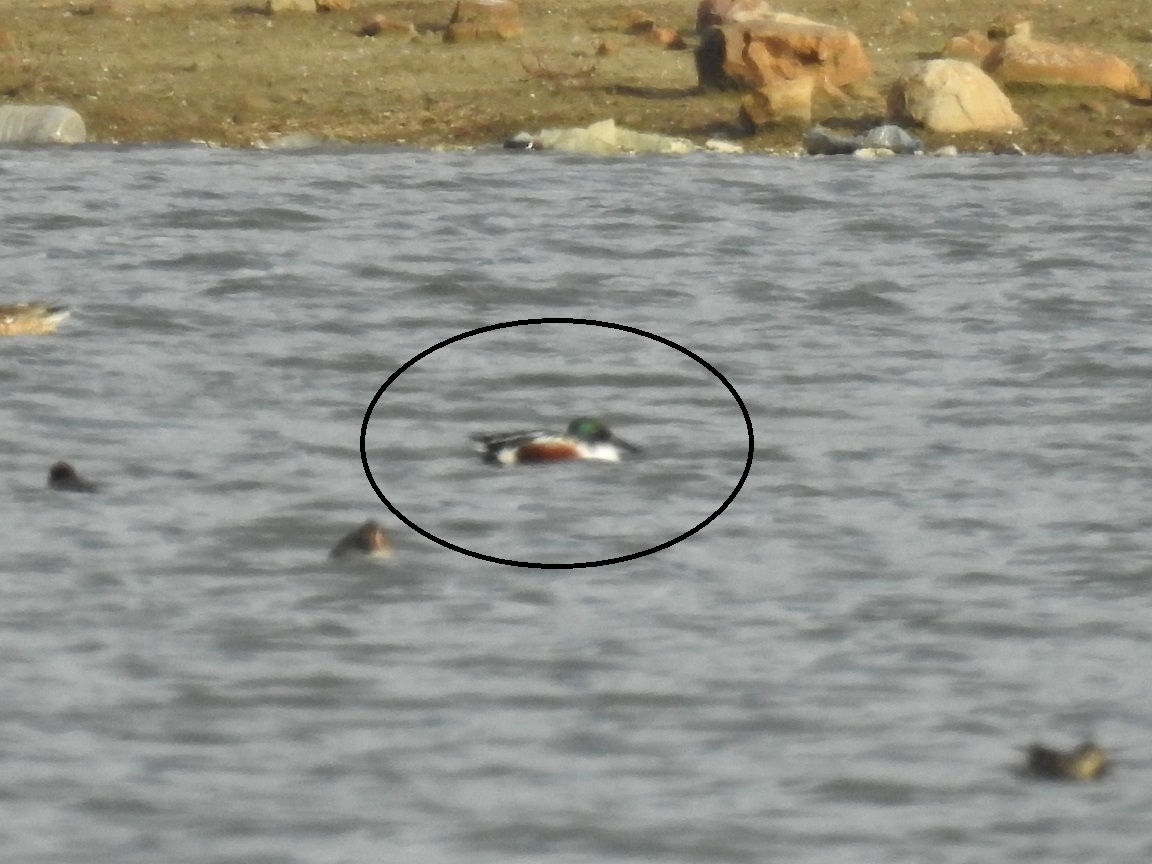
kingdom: Animalia
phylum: Chordata
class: Aves
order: Anseriformes
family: Anatidae
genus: Spatula
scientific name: Spatula clypeata
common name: Northern shoveler
